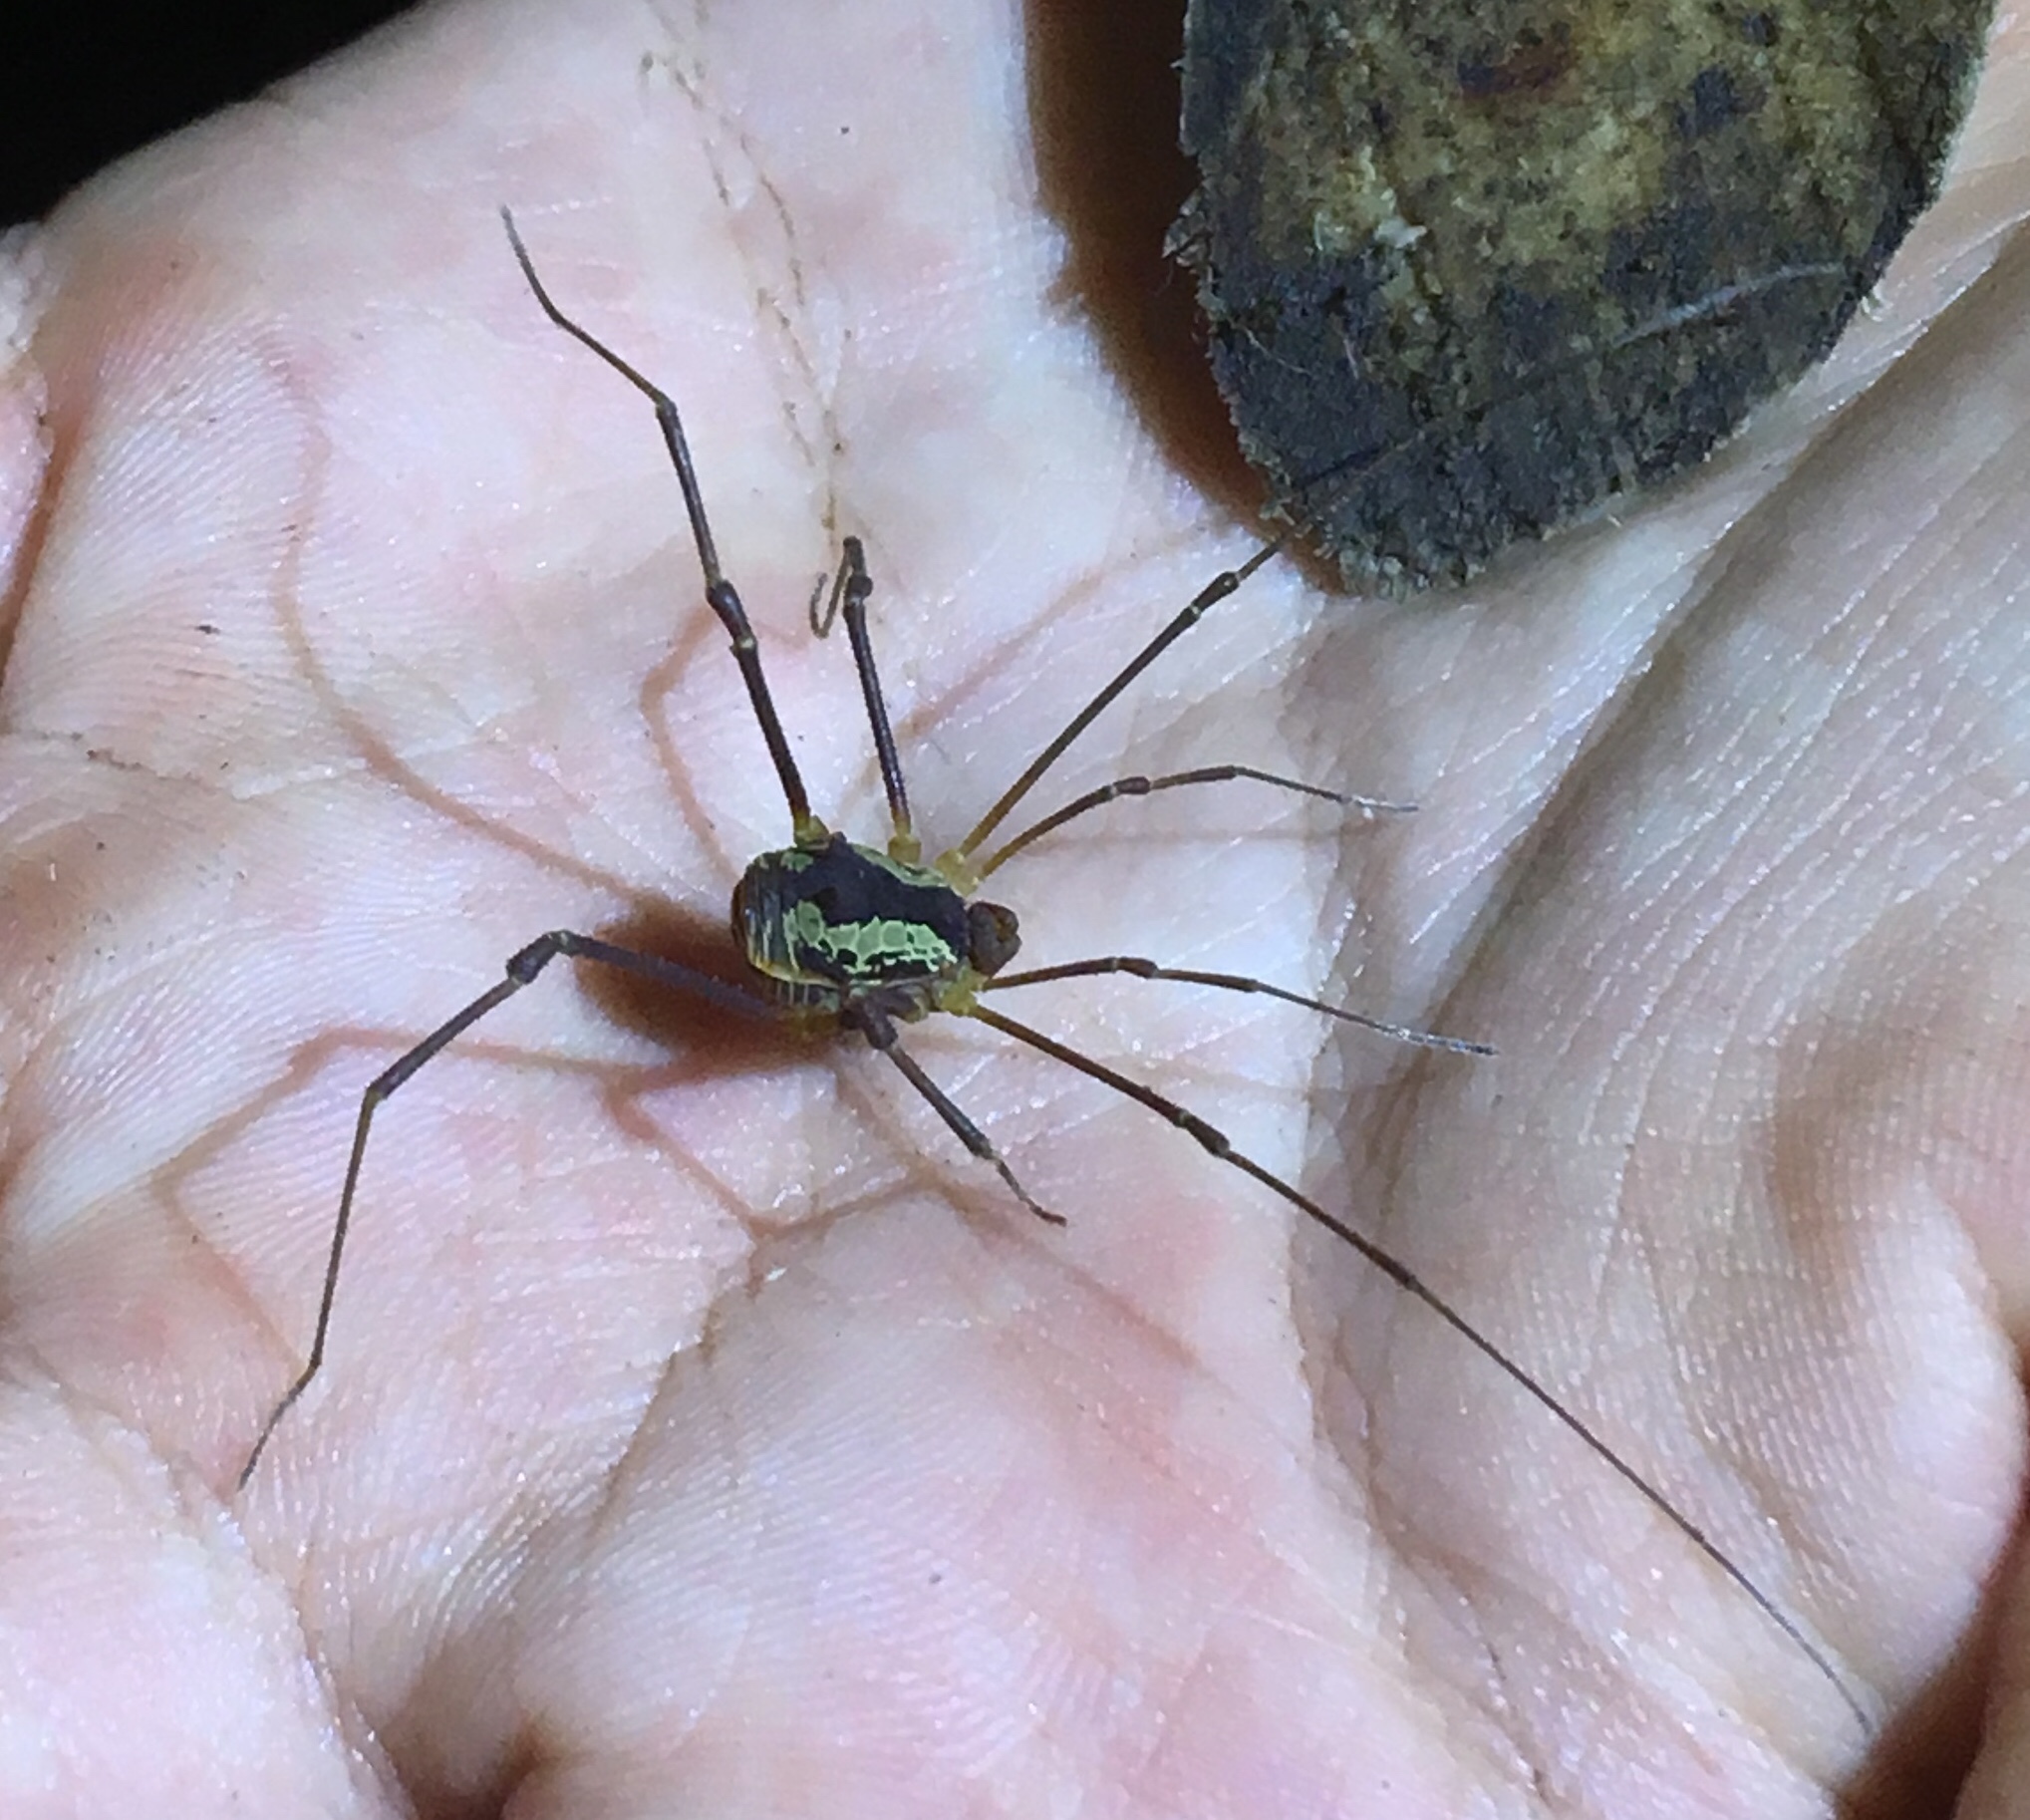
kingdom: Animalia
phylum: Arthropoda
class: Arachnida
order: Opiliones
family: Cosmetidae
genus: Meterginus
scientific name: Meterginus togatus
